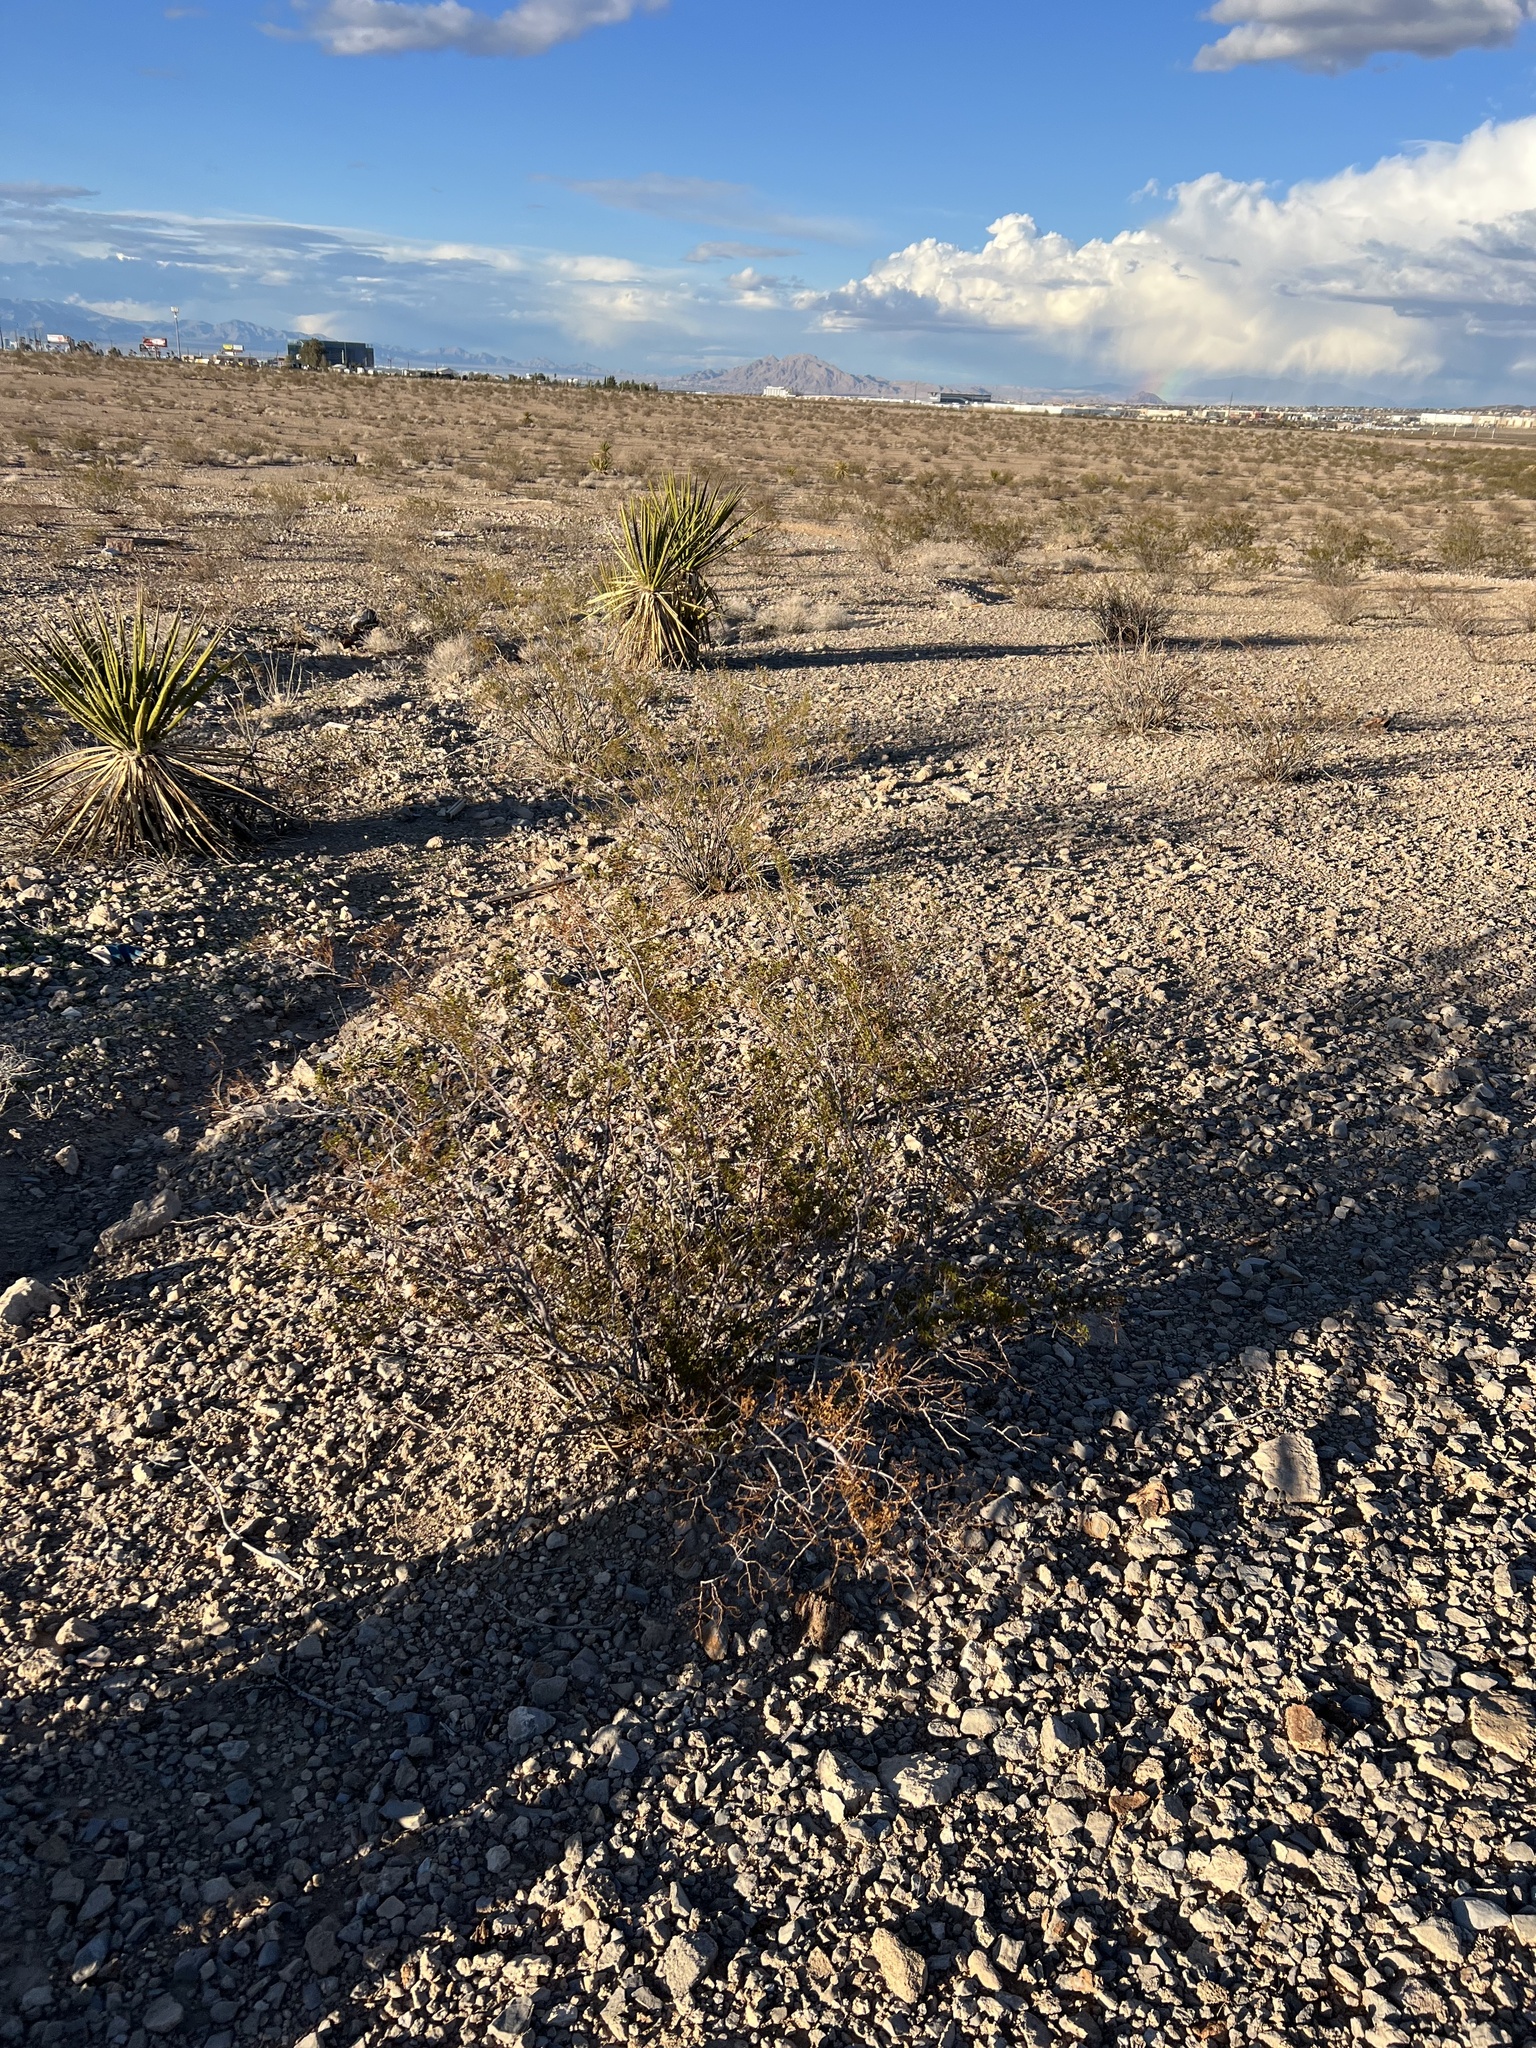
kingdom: Plantae
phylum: Tracheophyta
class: Magnoliopsida
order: Zygophyllales
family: Zygophyllaceae
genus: Larrea
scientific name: Larrea tridentata
